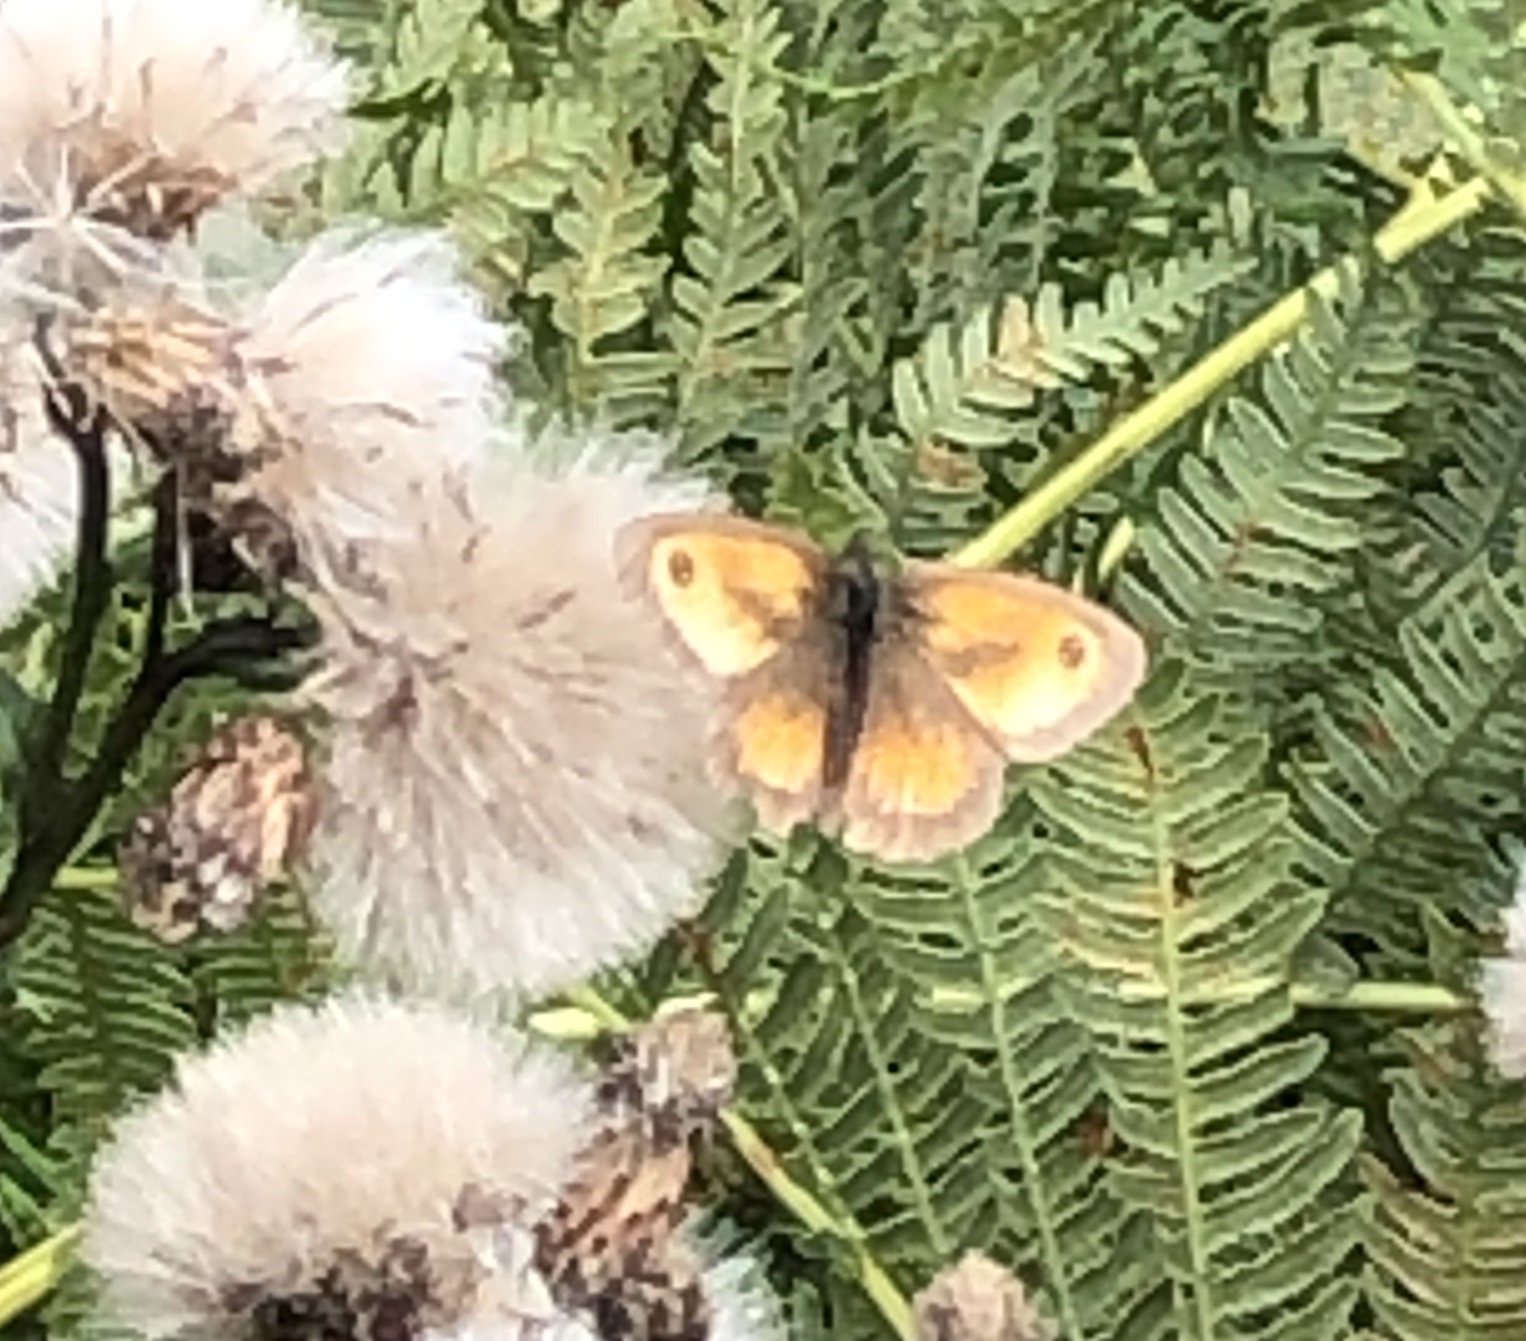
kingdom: Animalia
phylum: Arthropoda
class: Insecta
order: Lepidoptera
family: Nymphalidae
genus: Pyronia
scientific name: Pyronia tithonus
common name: Gatekeeper
